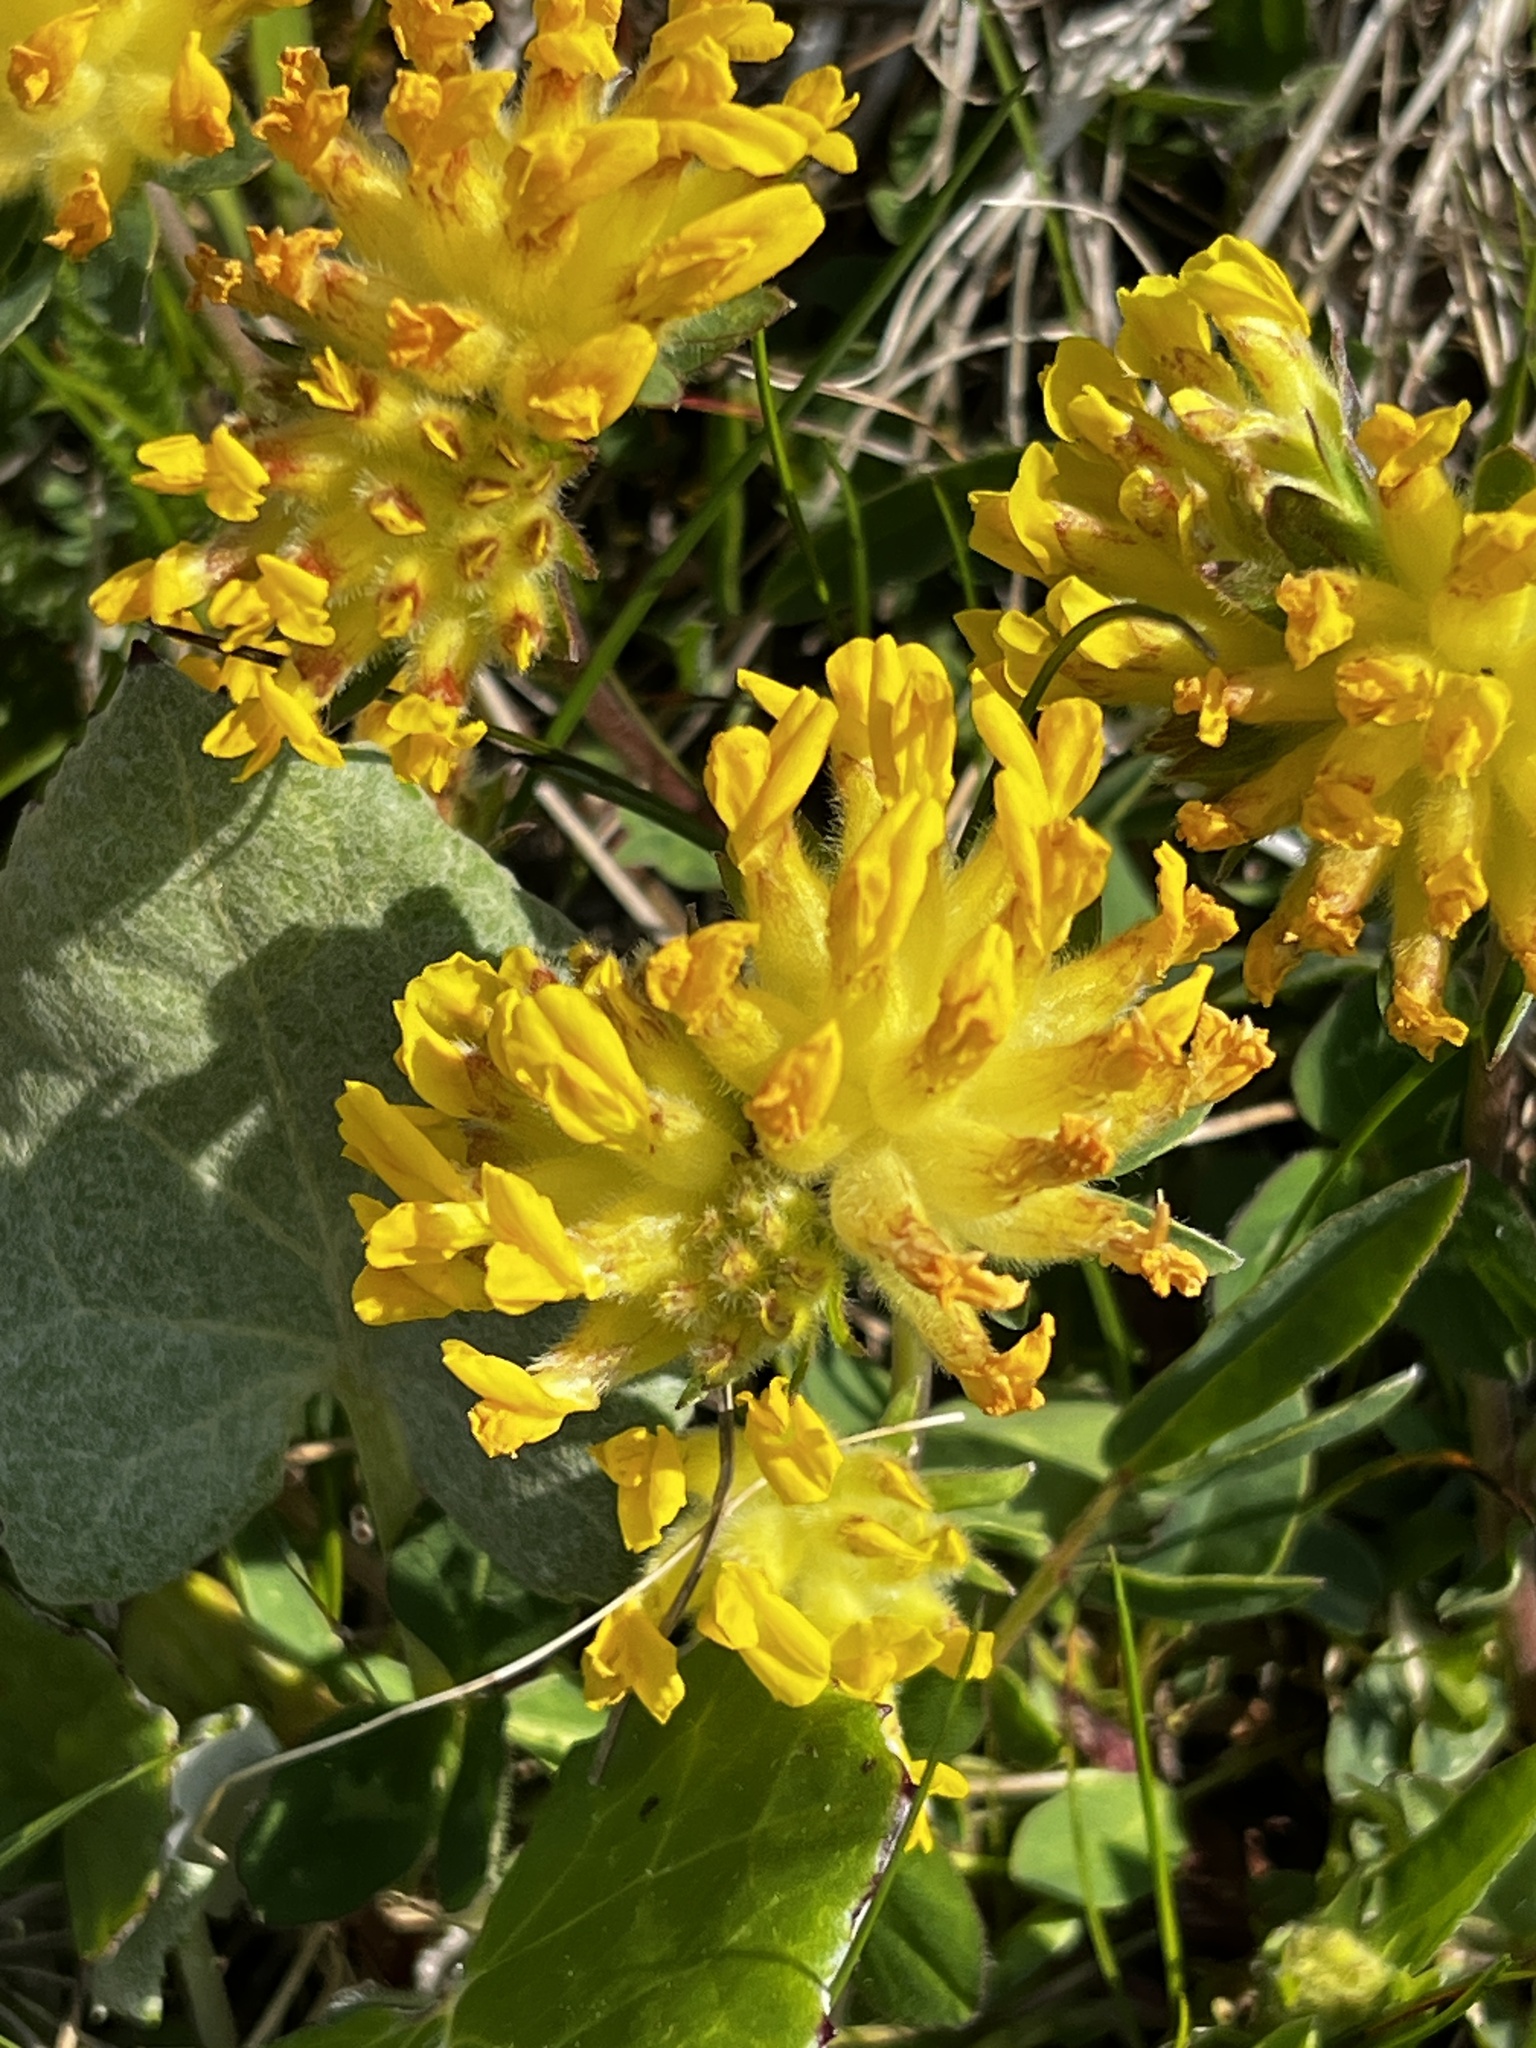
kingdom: Plantae
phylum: Tracheophyta
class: Magnoliopsida
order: Fabales
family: Fabaceae
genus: Anthyllis
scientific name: Anthyllis vulneraria
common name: Kidney vetch
